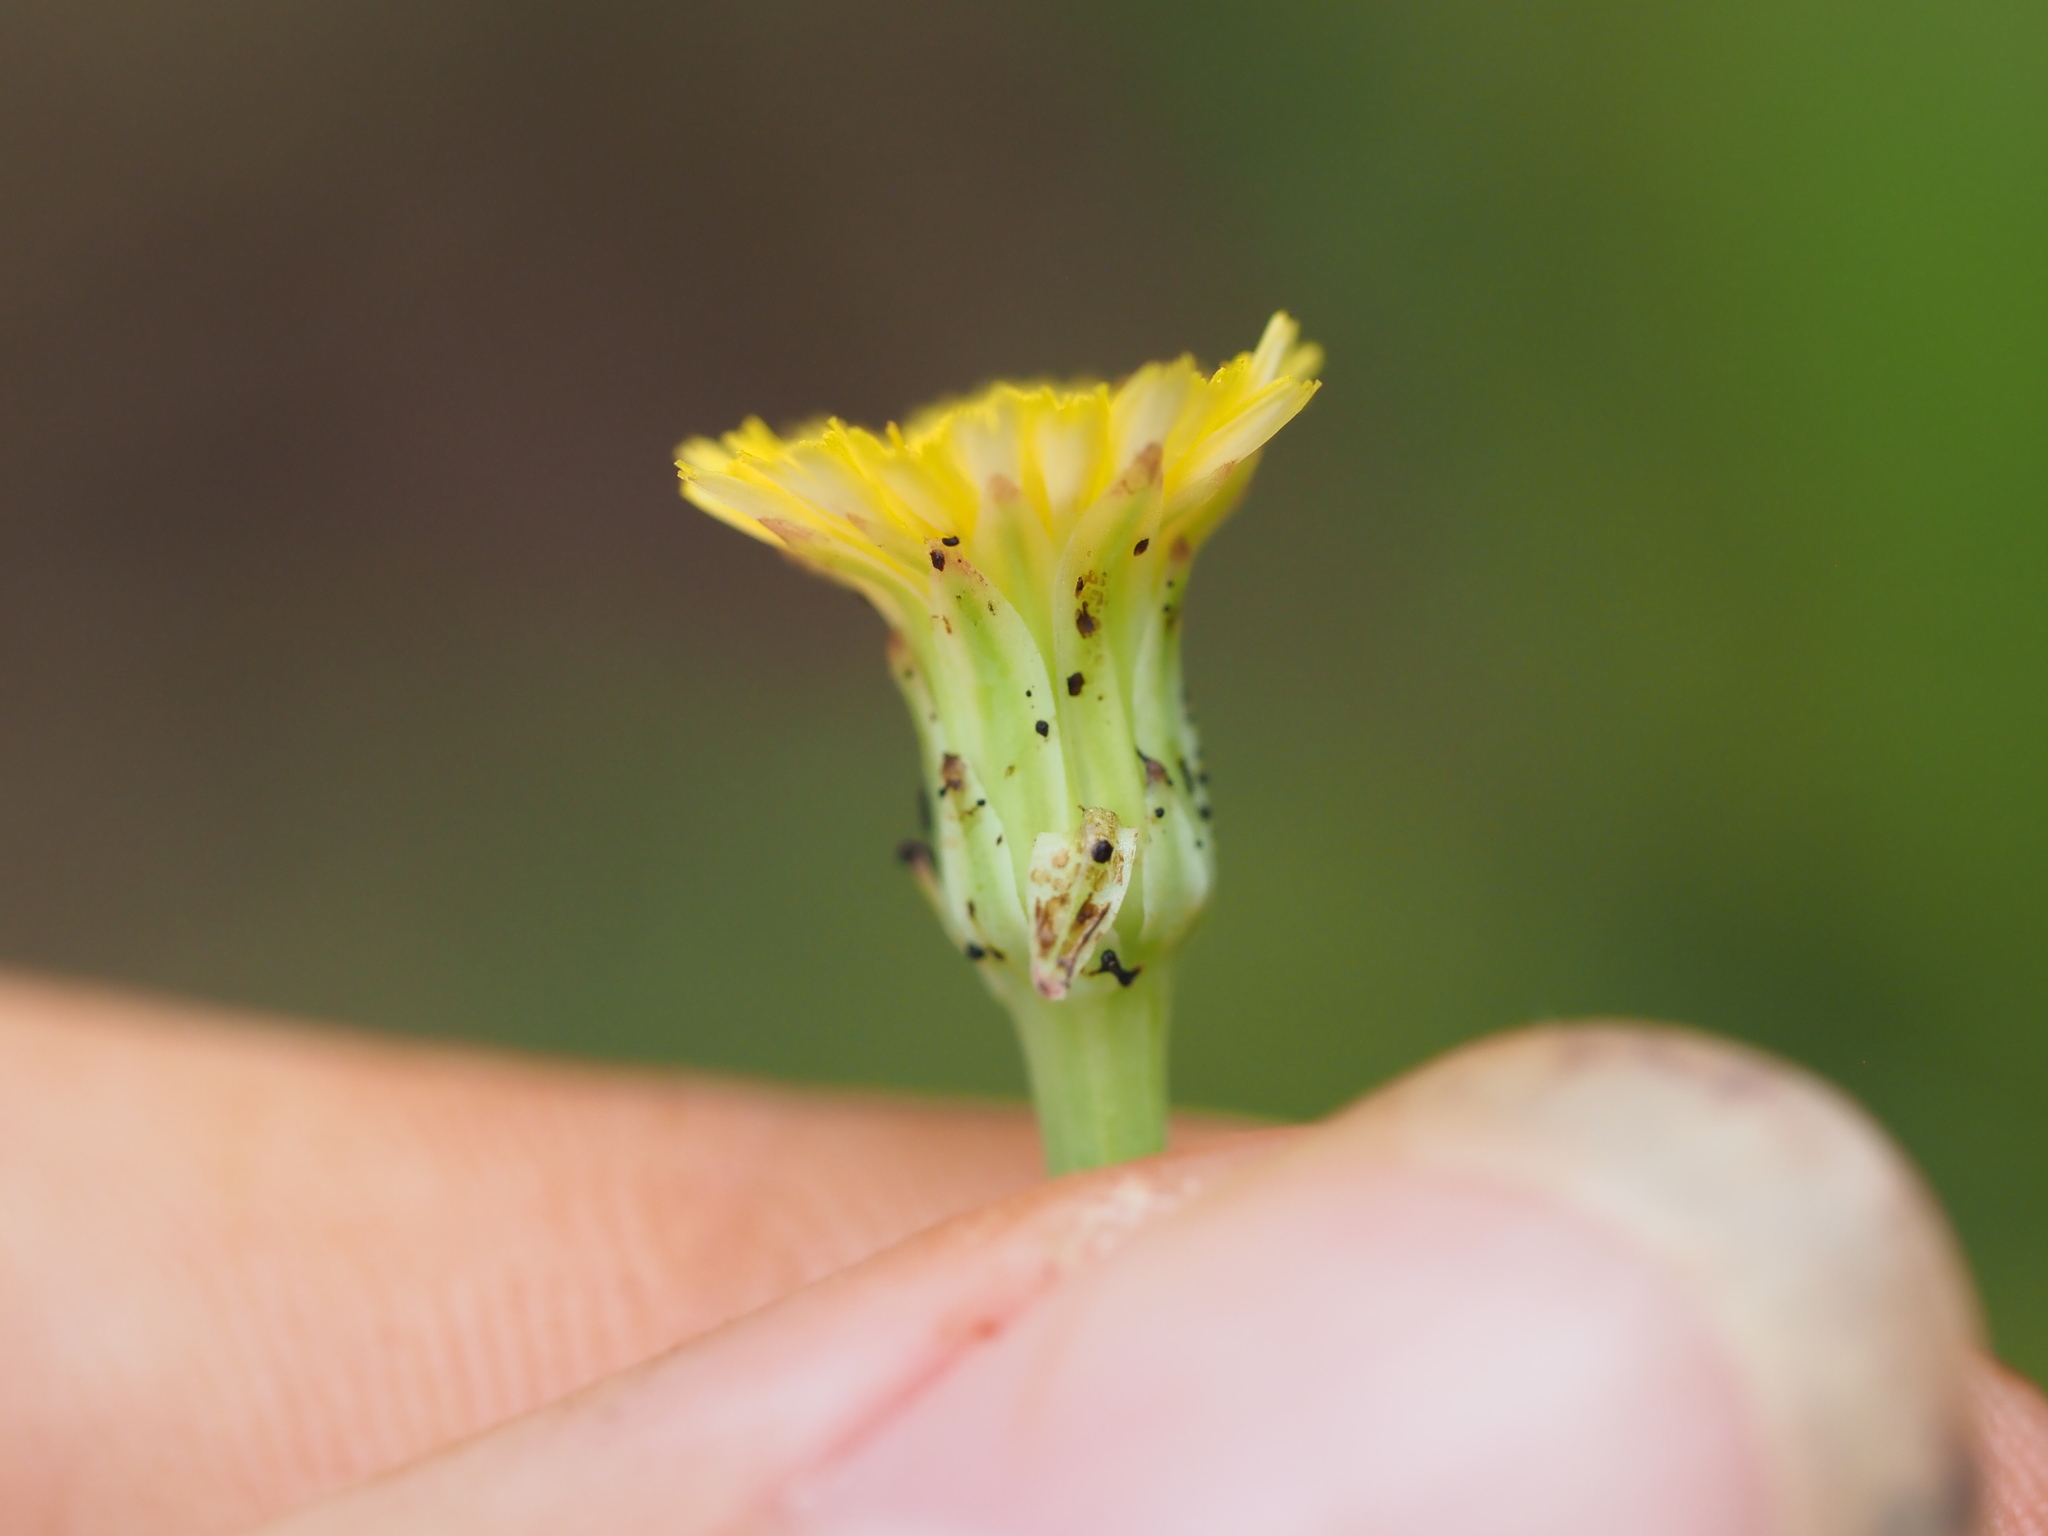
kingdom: Plantae
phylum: Tracheophyta
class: Magnoliopsida
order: Asterales
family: Asteraceae
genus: Hypochaeris
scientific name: Hypochaeris glabra
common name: Smooth catsear
